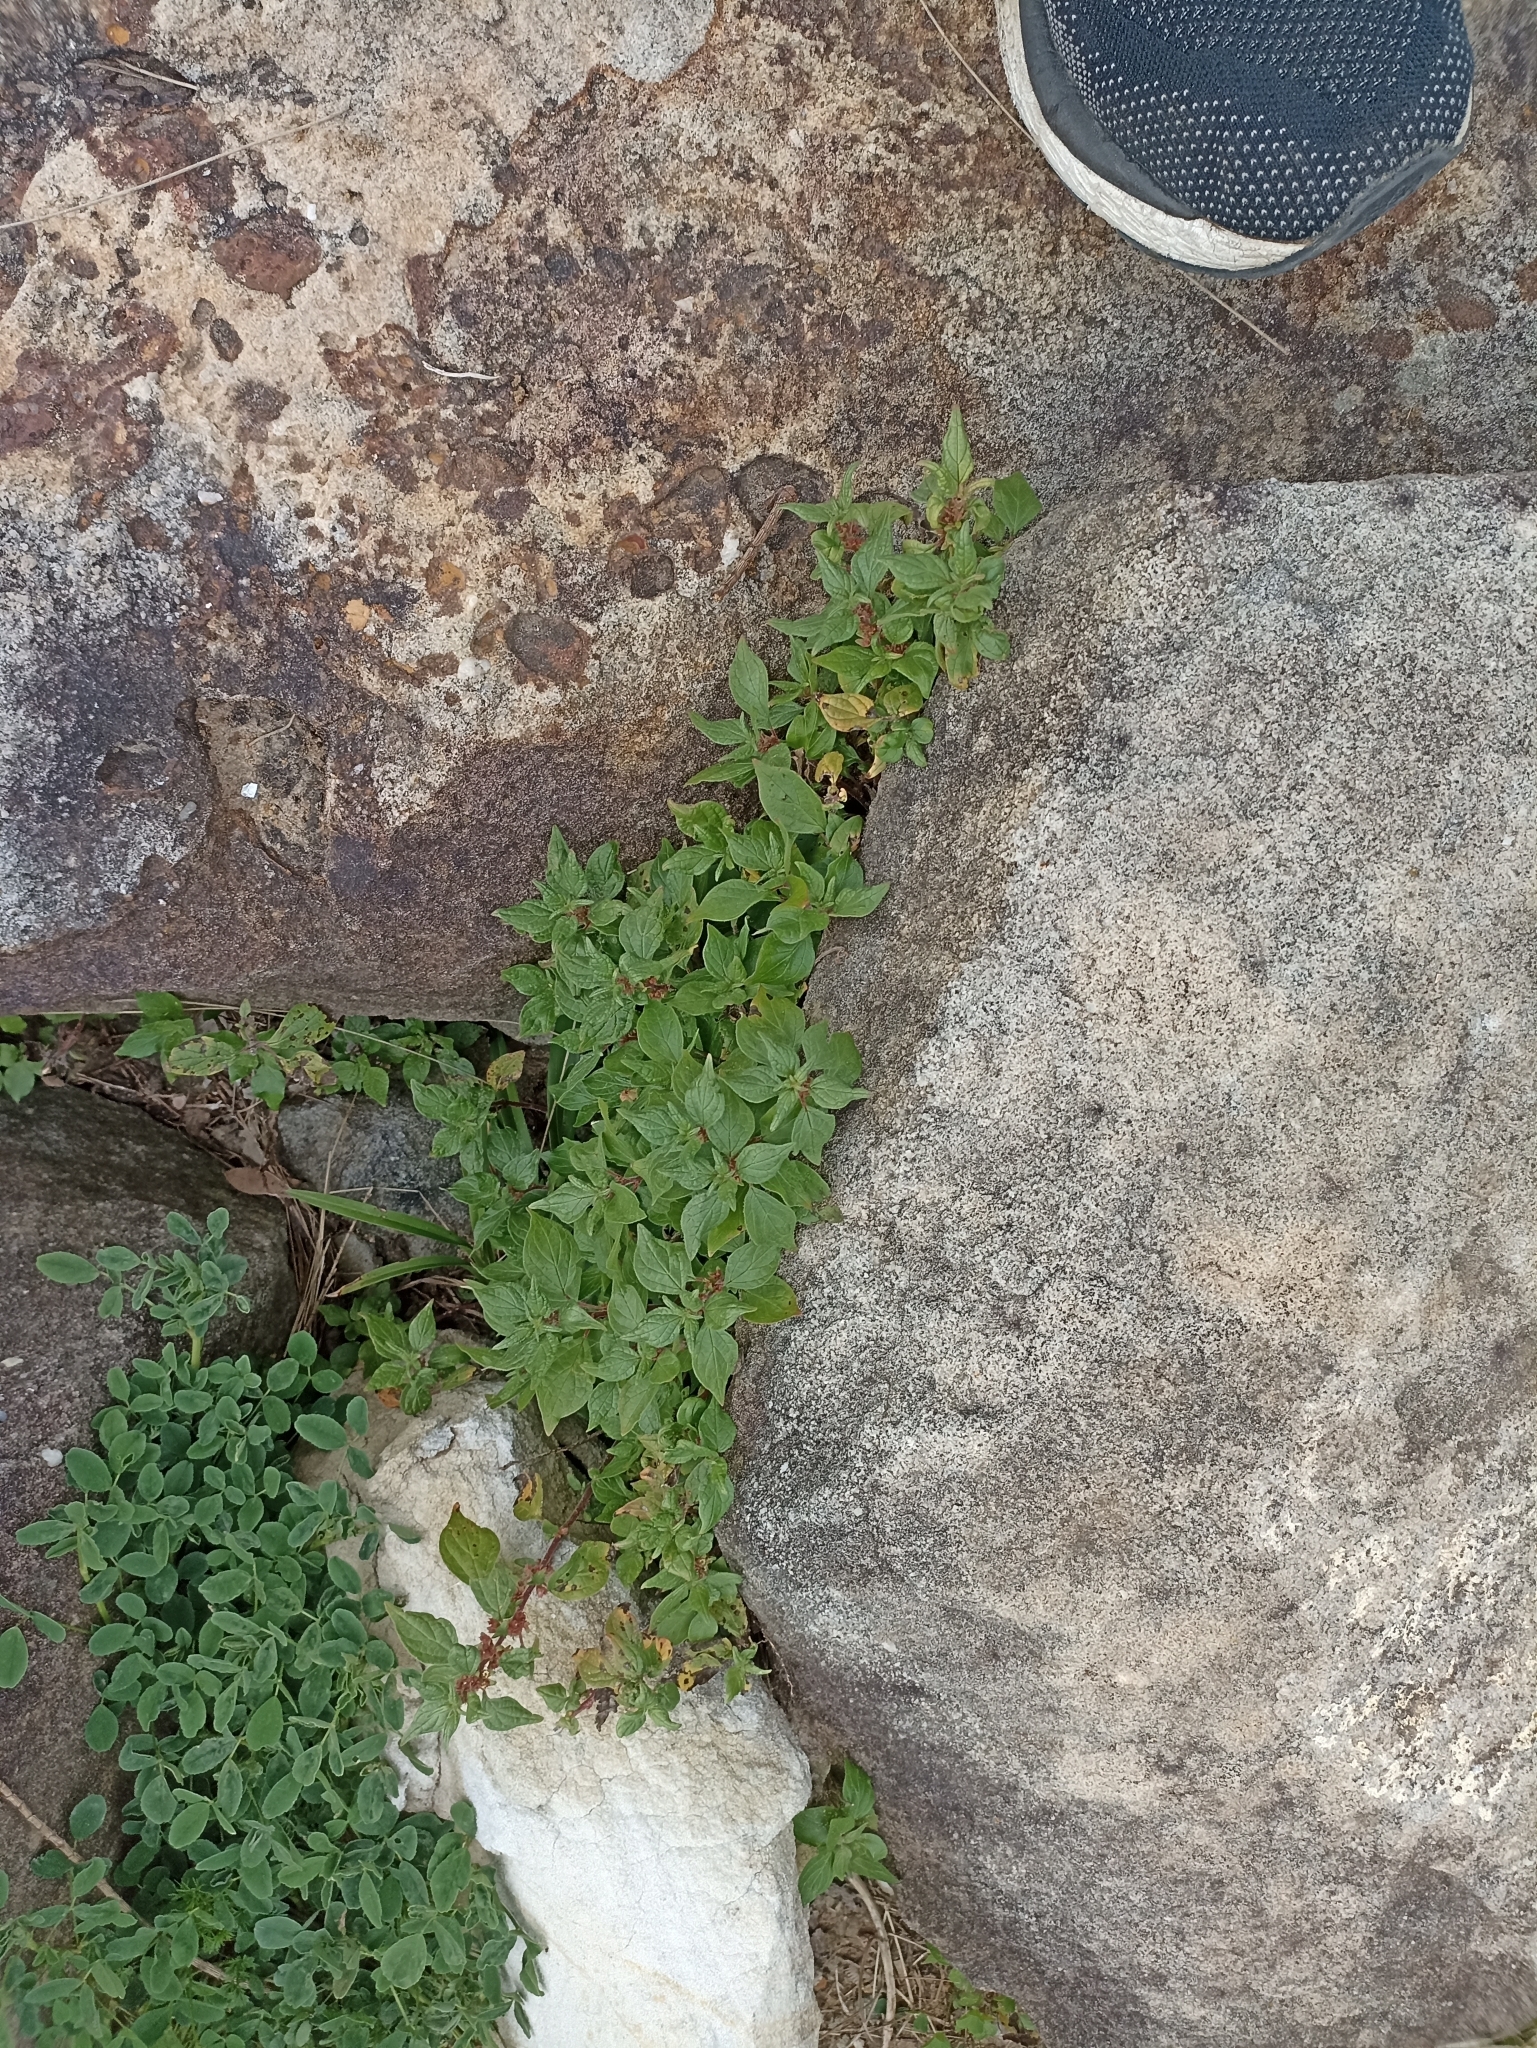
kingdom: Plantae
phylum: Tracheophyta
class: Magnoliopsida
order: Rosales
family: Urticaceae
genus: Parietaria
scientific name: Parietaria judaica
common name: Pellitory-of-the-wall
